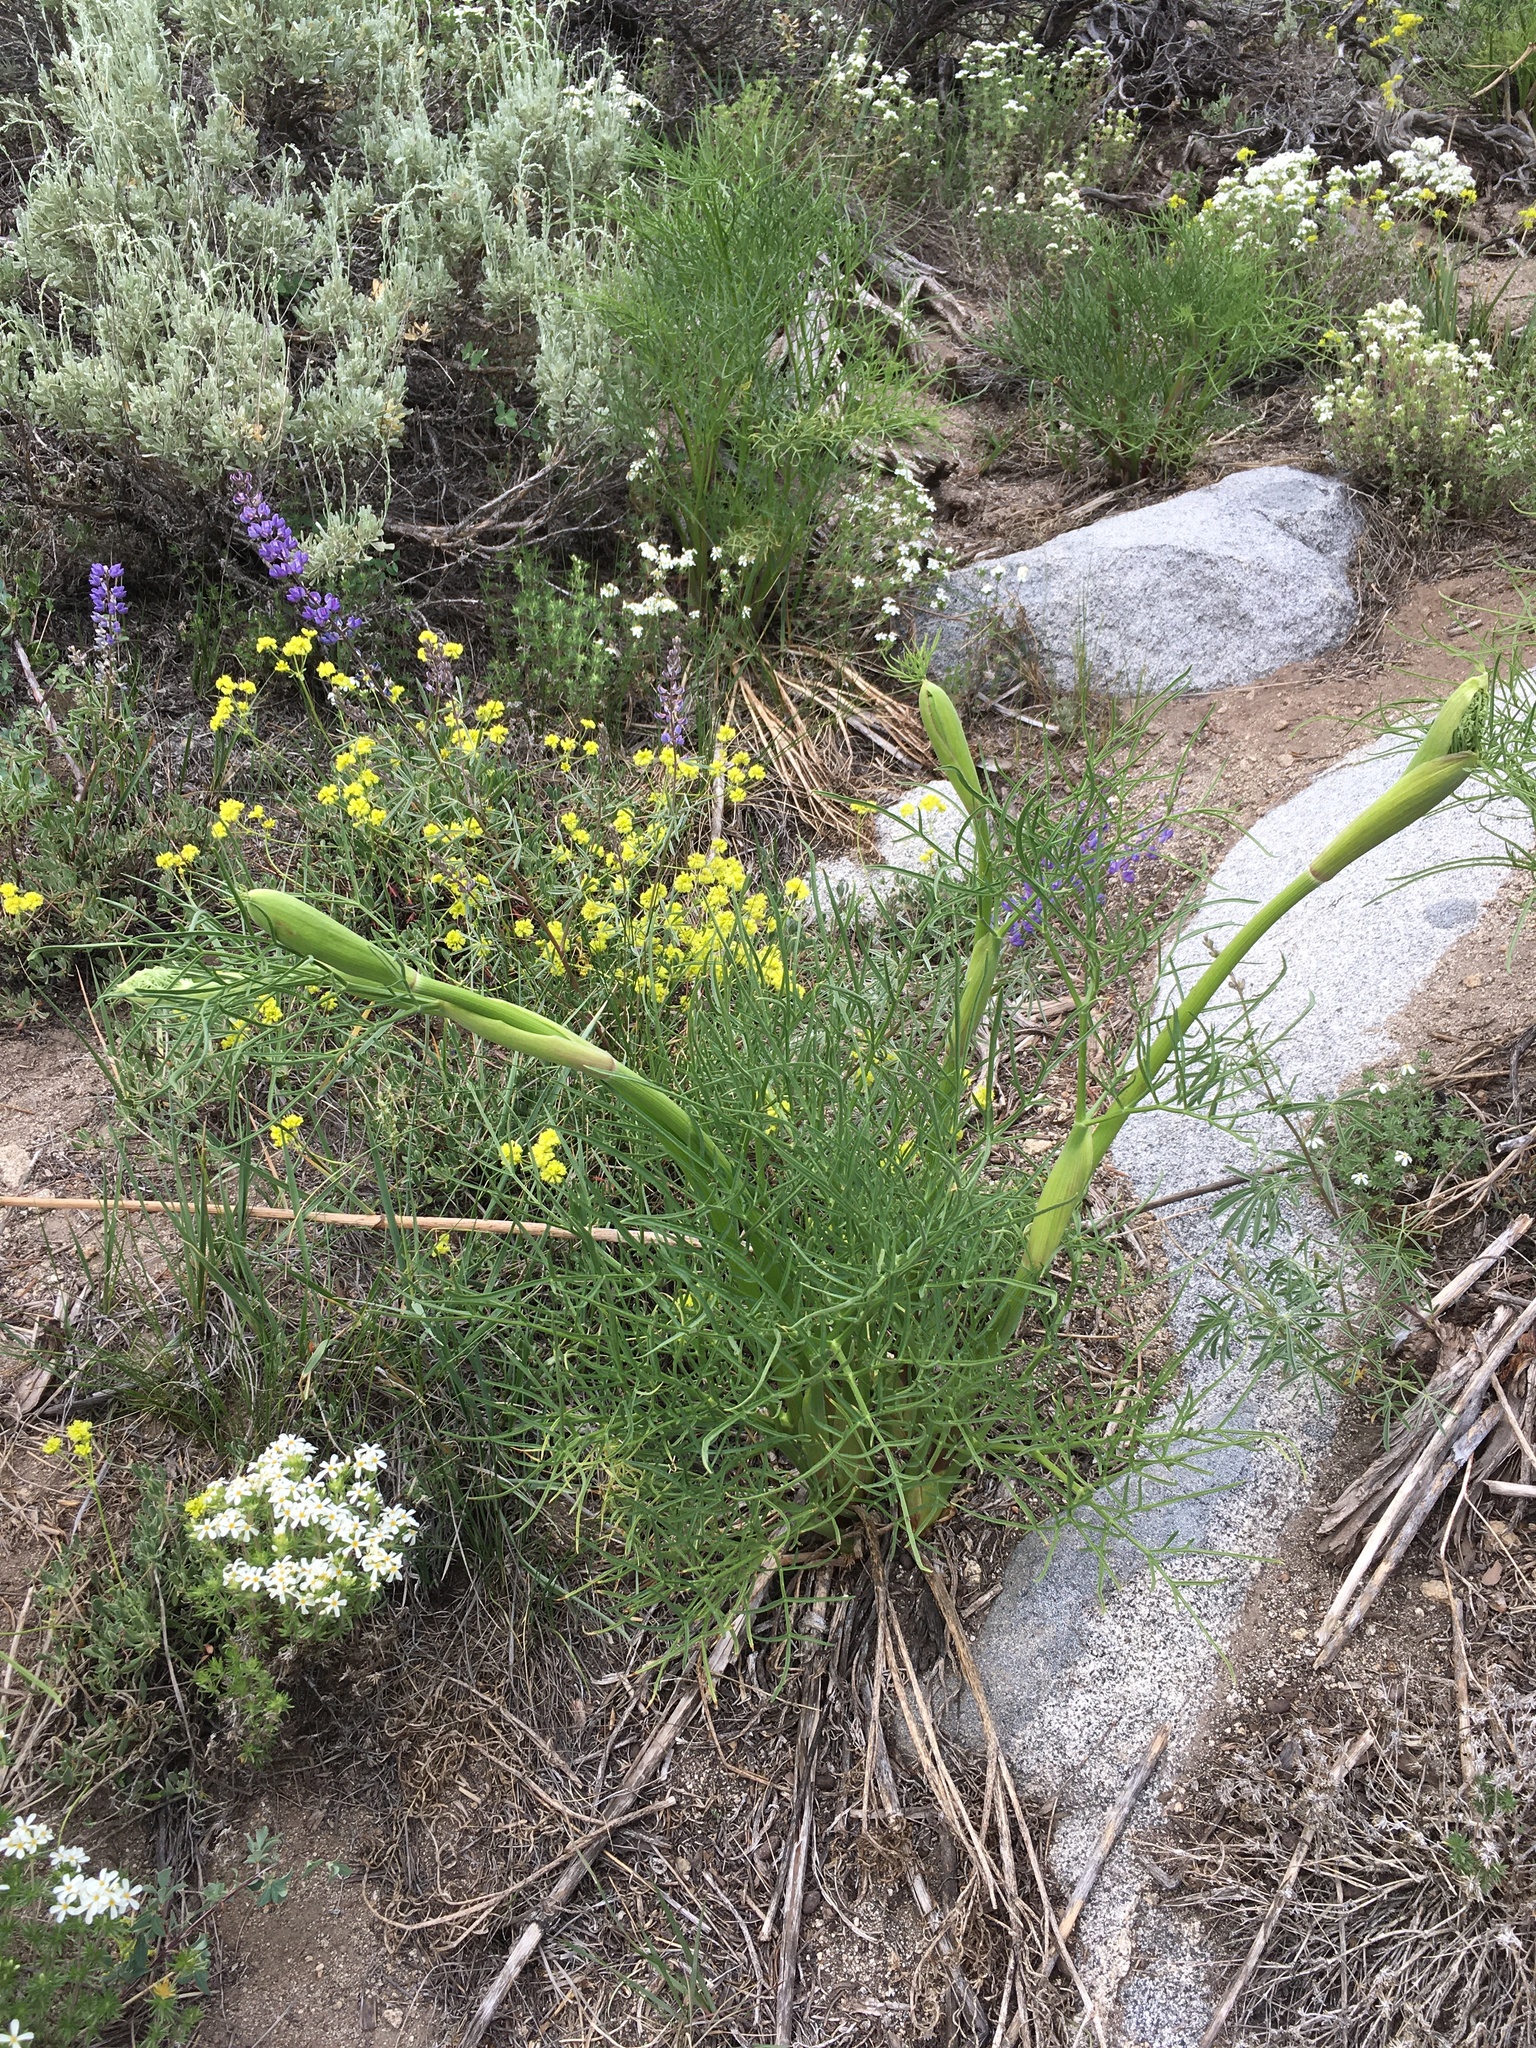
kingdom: Plantae
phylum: Tracheophyta
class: Magnoliopsida
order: Apiales
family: Apiaceae
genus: Angelica
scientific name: Angelica lineariloba
